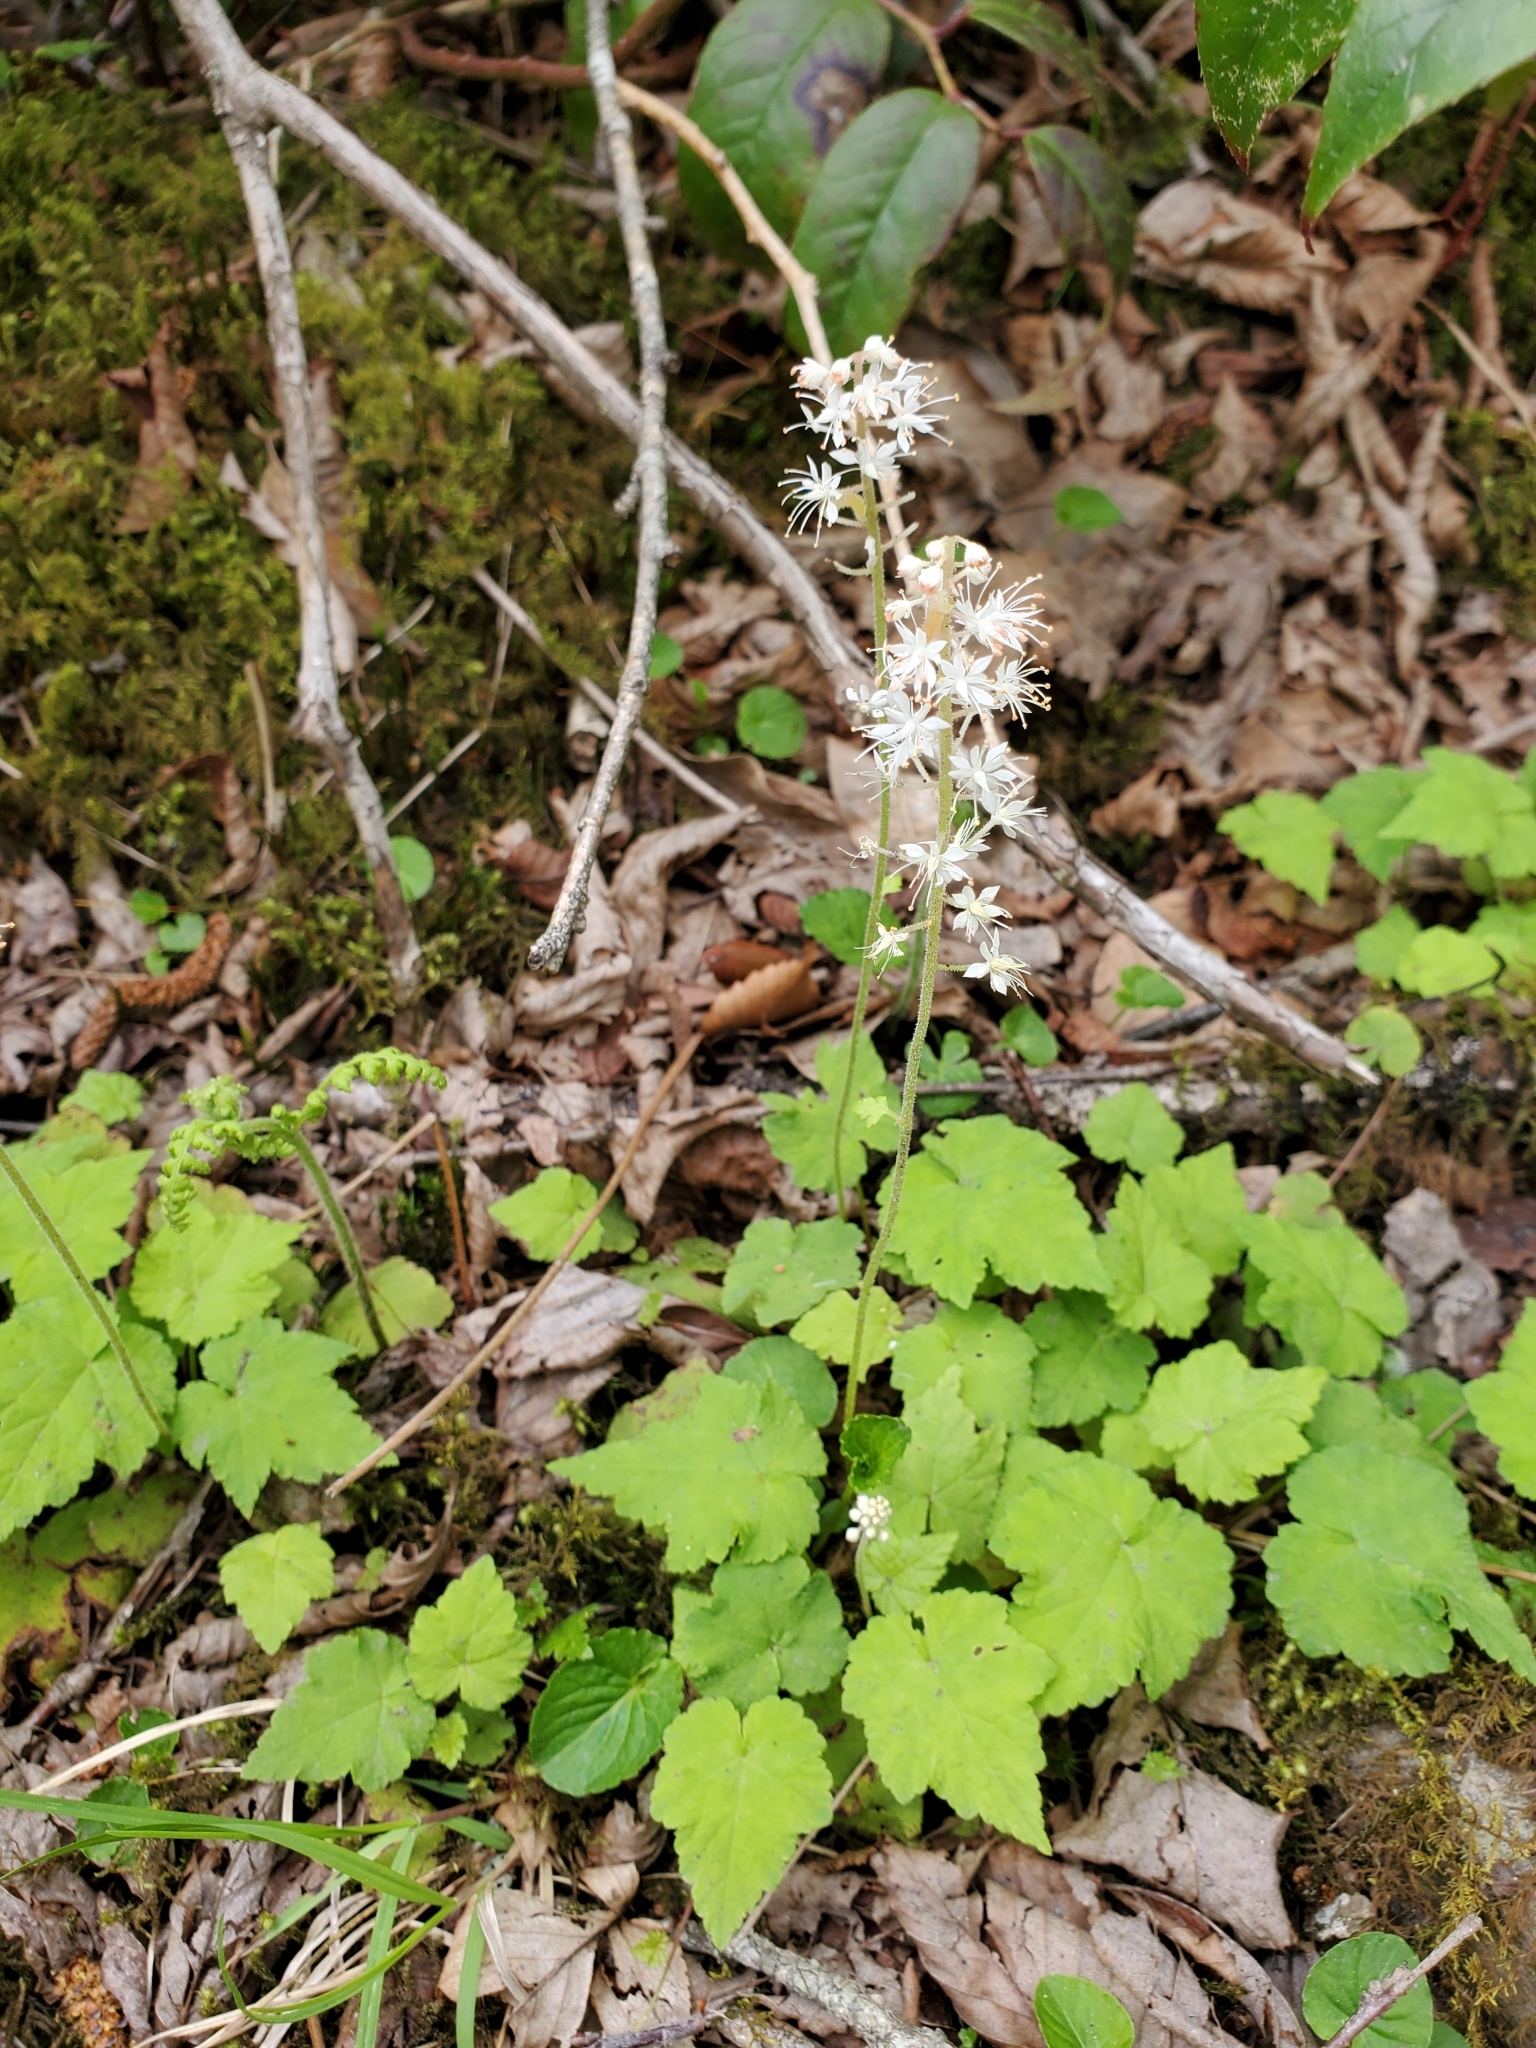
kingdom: Plantae
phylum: Tracheophyta
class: Magnoliopsida
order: Saxifragales
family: Saxifragaceae
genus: Tiarella
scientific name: Tiarella austrina
